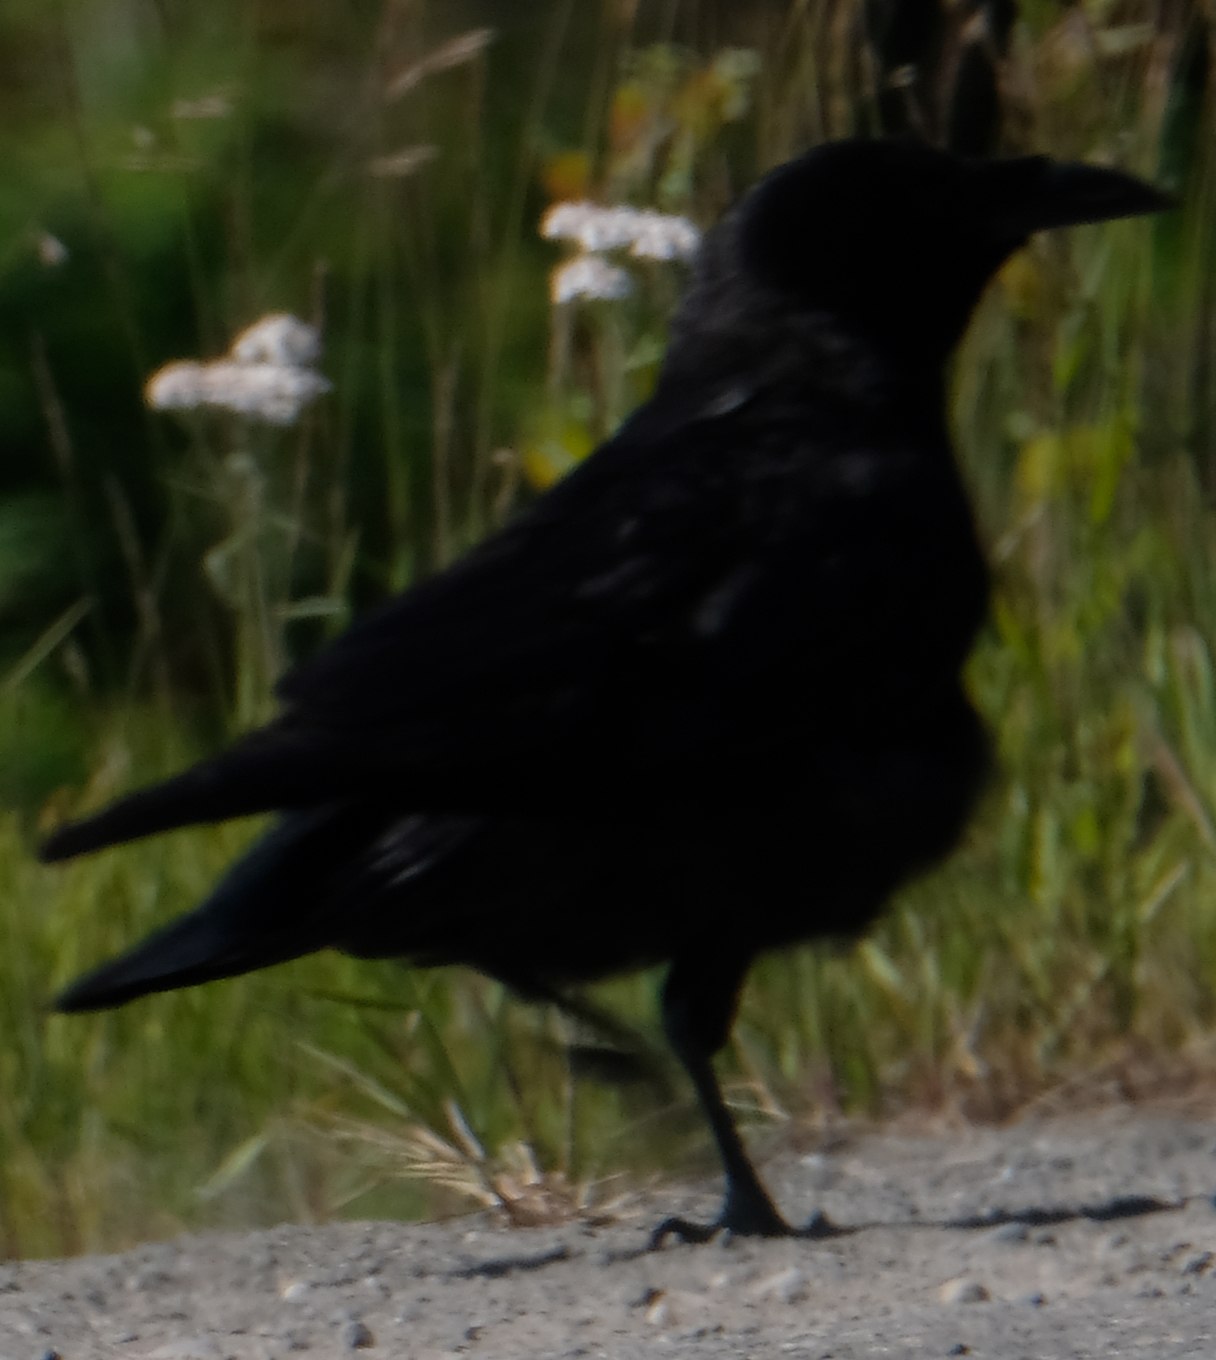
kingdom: Animalia
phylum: Chordata
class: Aves
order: Passeriformes
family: Corvidae
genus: Corvus
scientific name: Corvus corax
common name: Common raven
